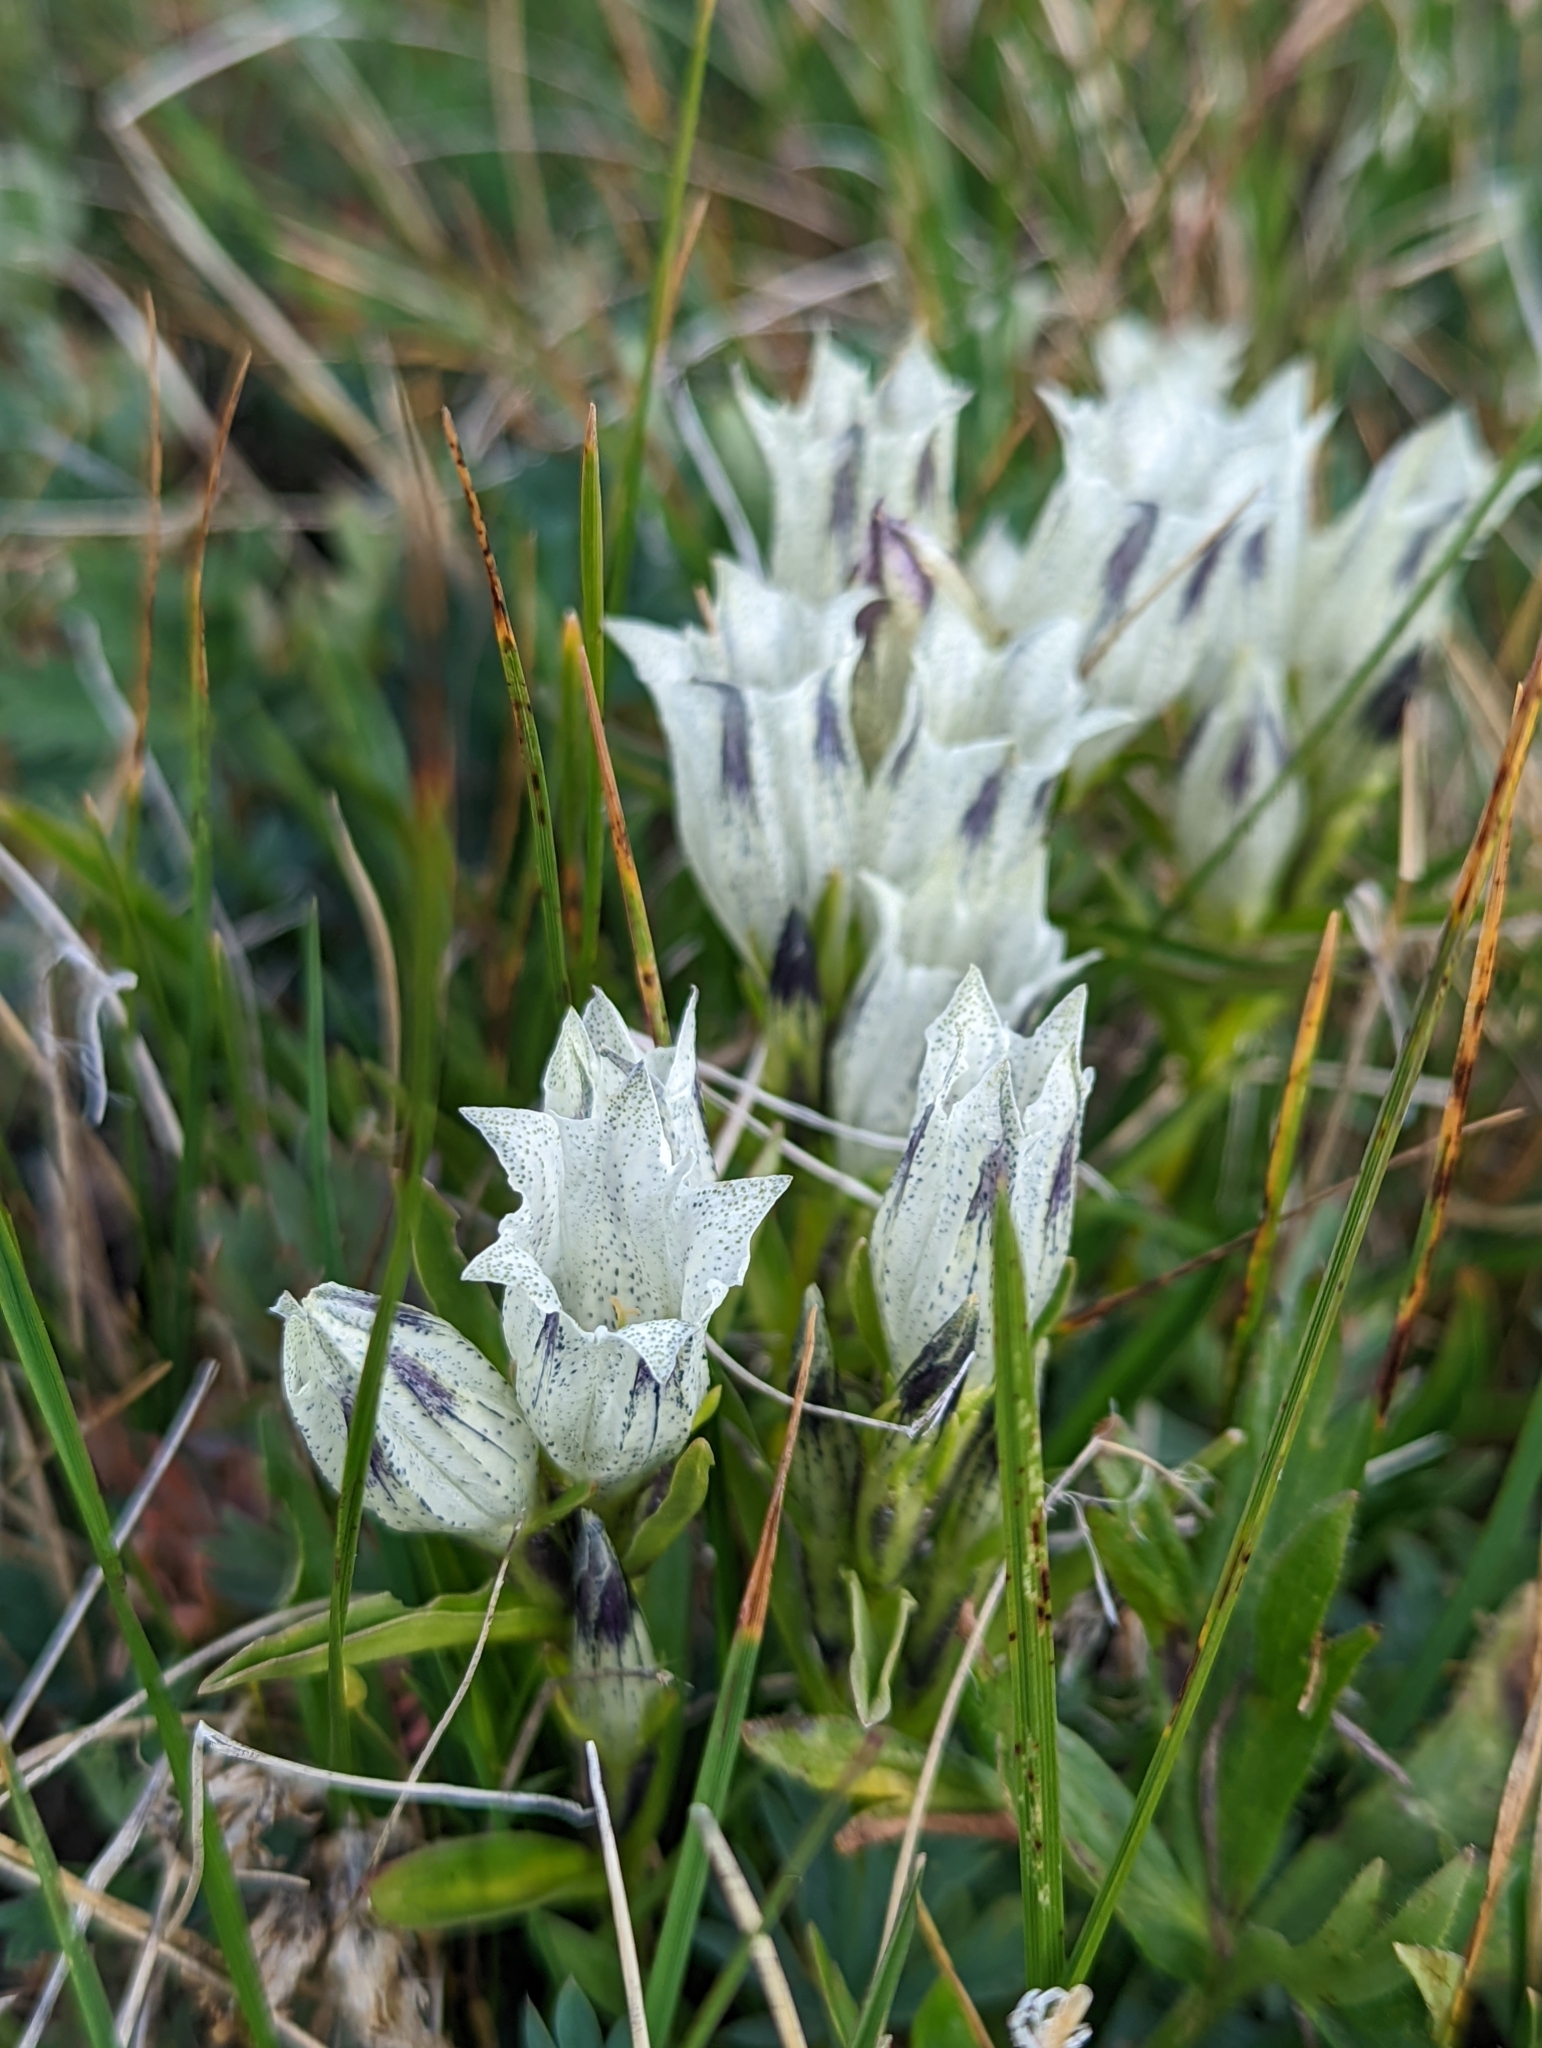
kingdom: Plantae
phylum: Tracheophyta
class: Magnoliopsida
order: Gentianales
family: Gentianaceae
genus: Gentiana
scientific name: Gentiana algida
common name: Arctic gentian
